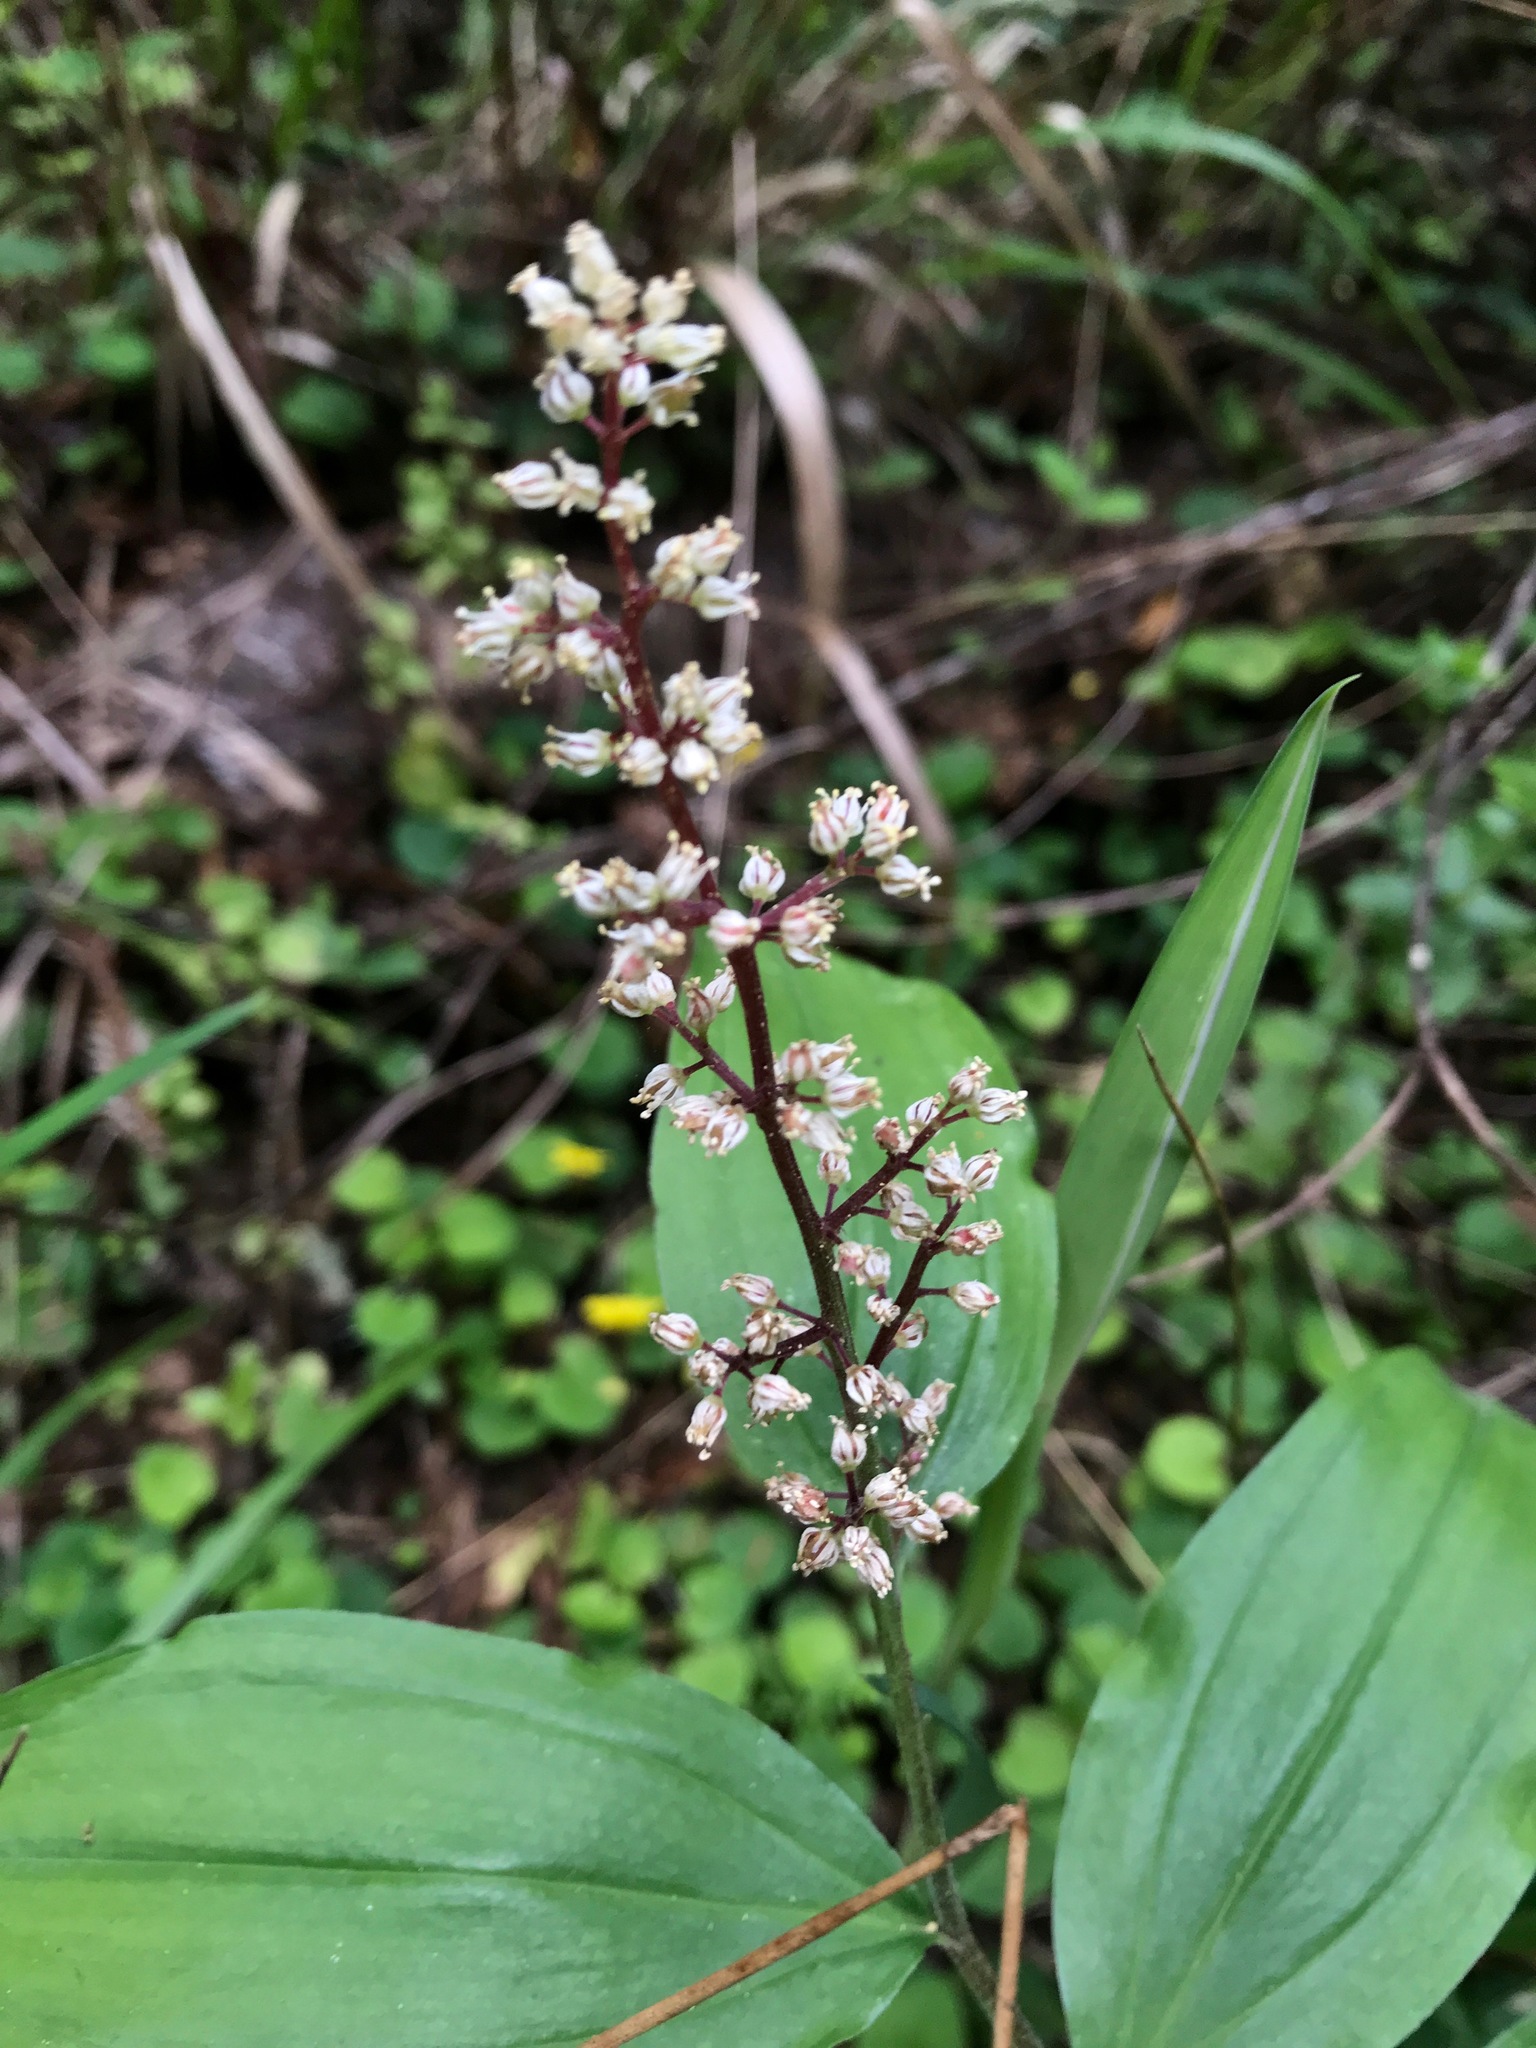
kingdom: Plantae
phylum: Tracheophyta
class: Liliopsida
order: Asparagales
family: Asparagaceae
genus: Maianthemum
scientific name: Maianthemum racemosum
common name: False spikenard
